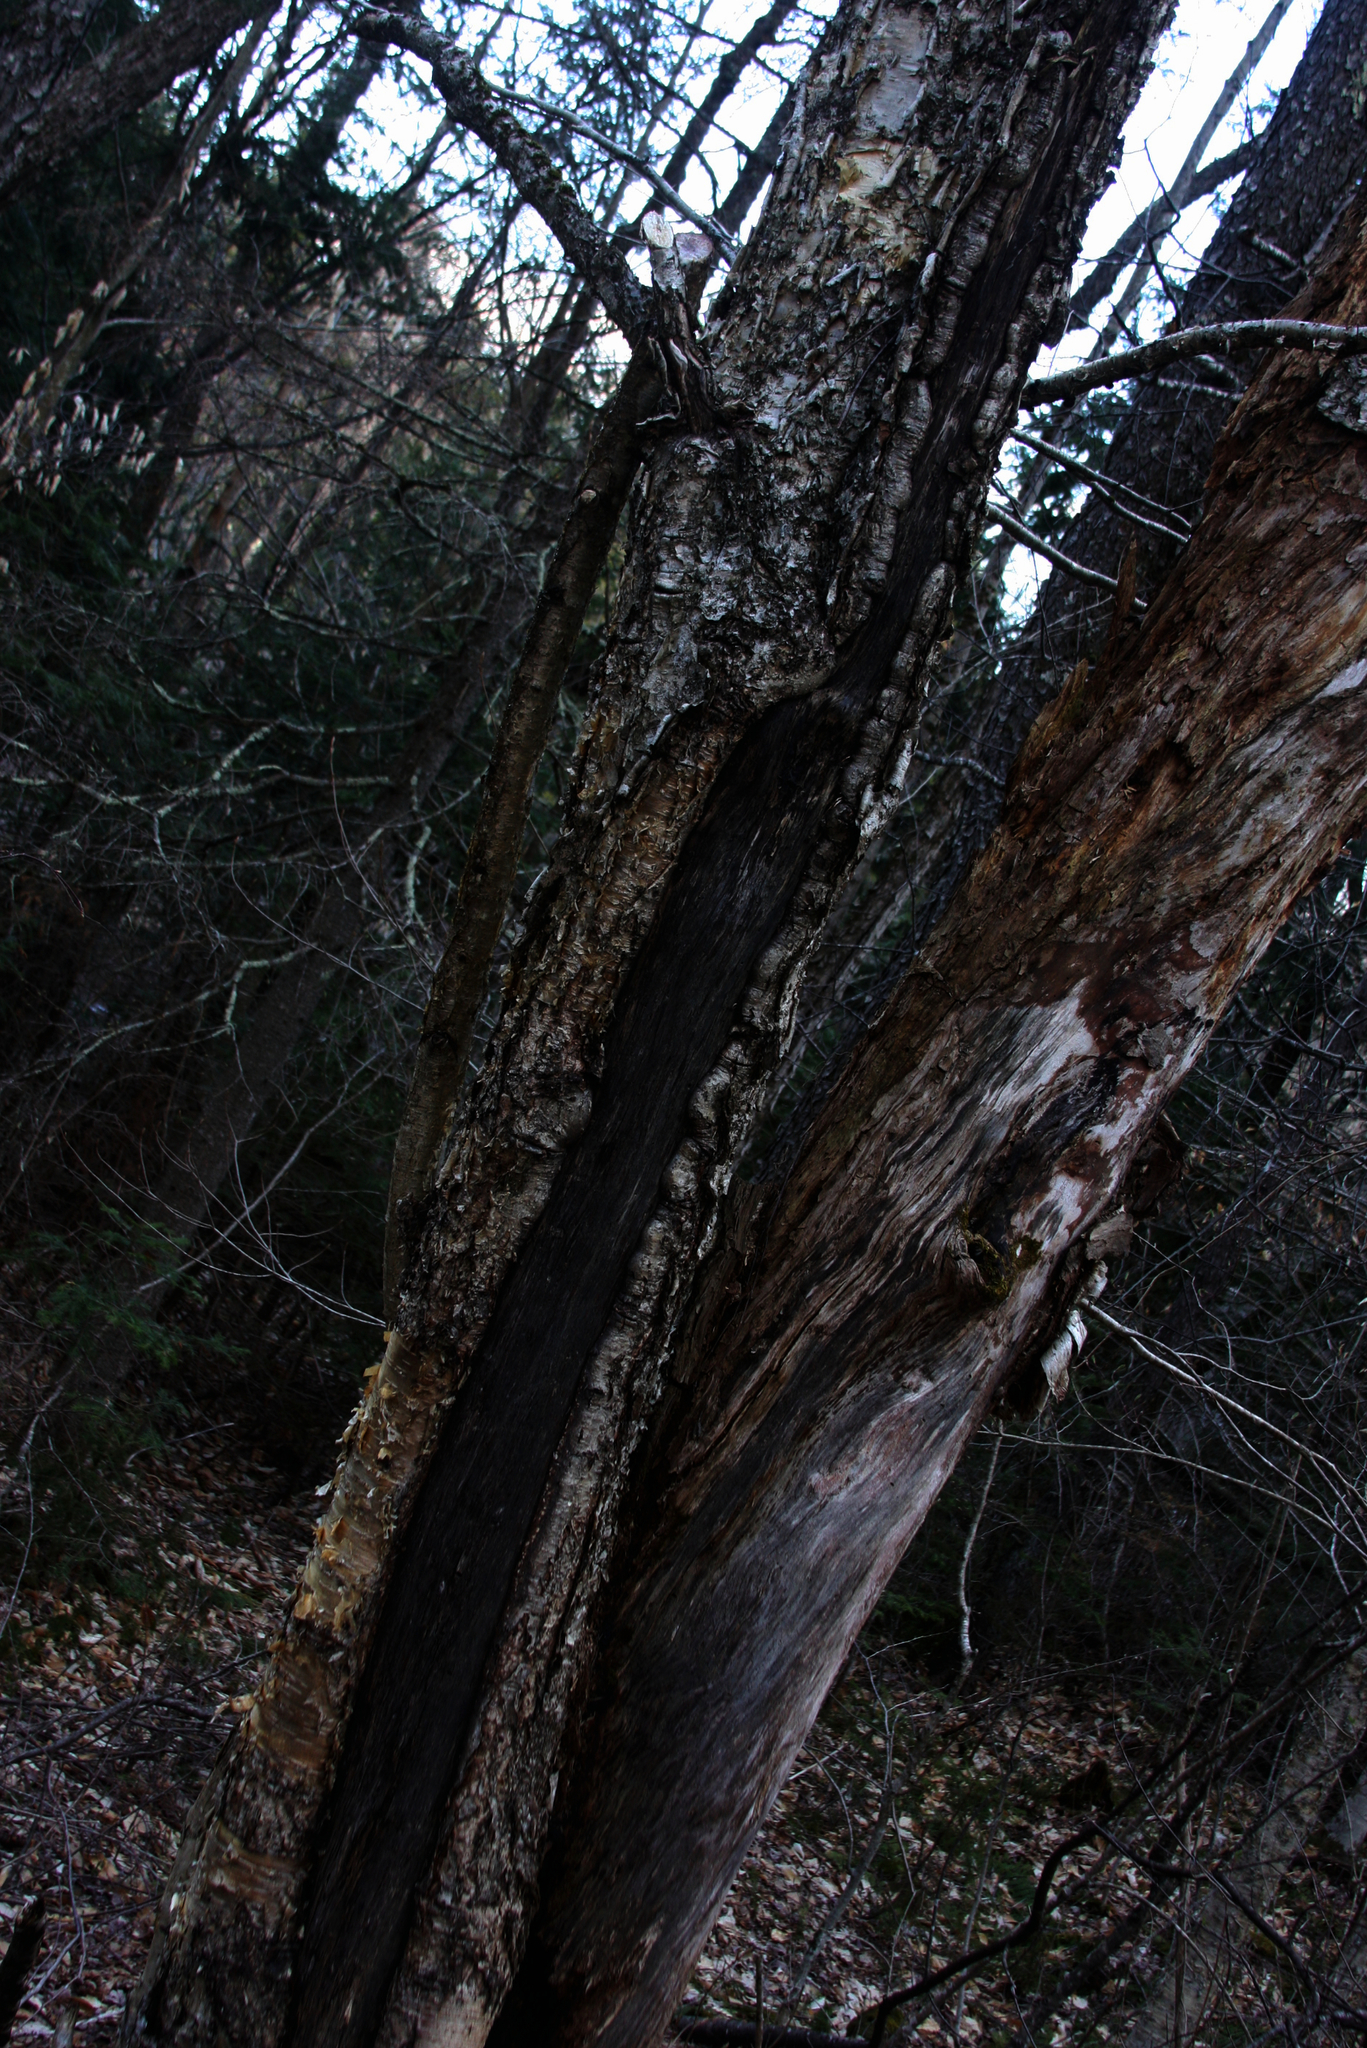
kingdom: Plantae
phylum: Tracheophyta
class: Magnoliopsida
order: Fagales
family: Betulaceae
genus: Betula
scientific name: Betula alleghaniensis
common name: Yellow birch
